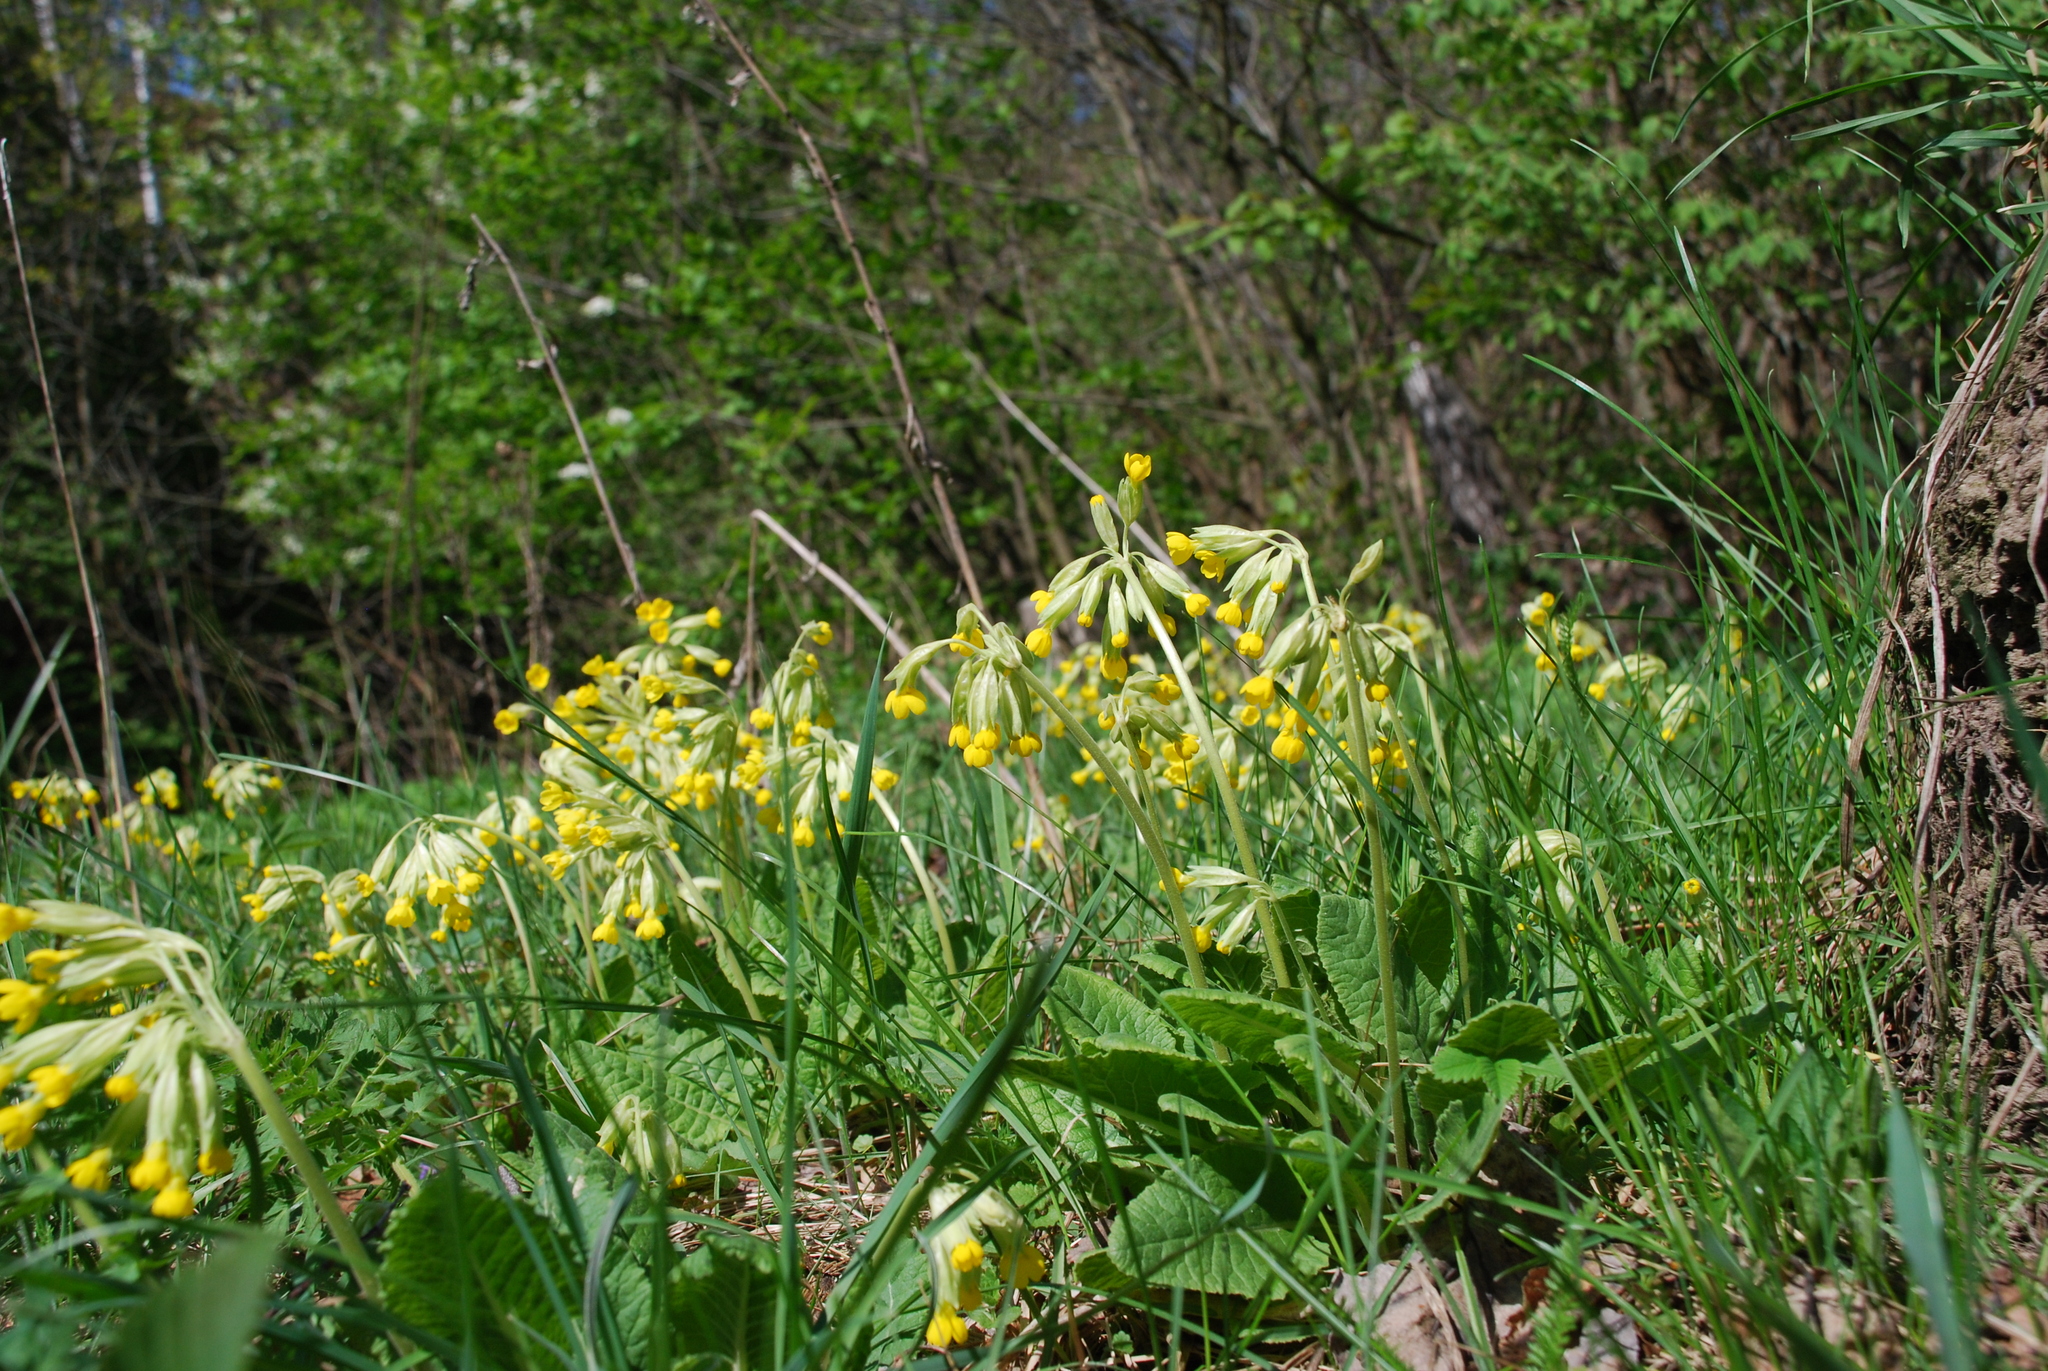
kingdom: Plantae
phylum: Tracheophyta
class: Magnoliopsida
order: Ericales
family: Primulaceae
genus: Primula
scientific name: Primula veris
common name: Cowslip
